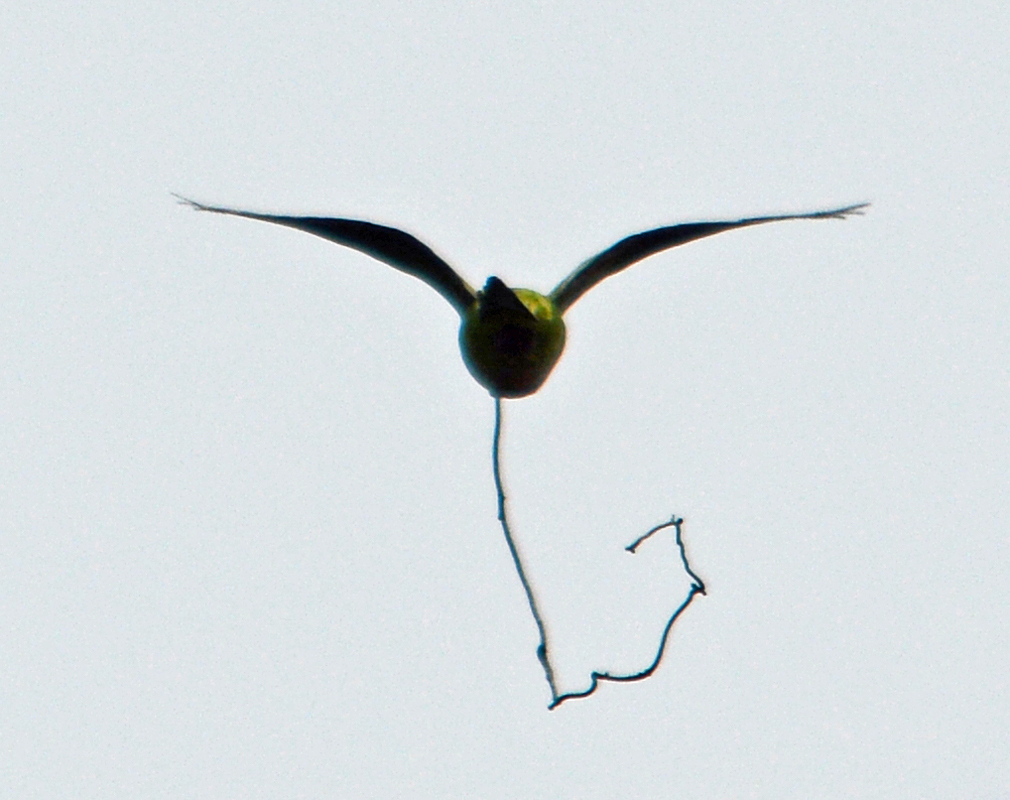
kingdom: Animalia
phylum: Chordata
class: Aves
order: Psittaciformes
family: Psittacidae
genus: Myiopsitta
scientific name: Myiopsitta monachus
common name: Monk parakeet
